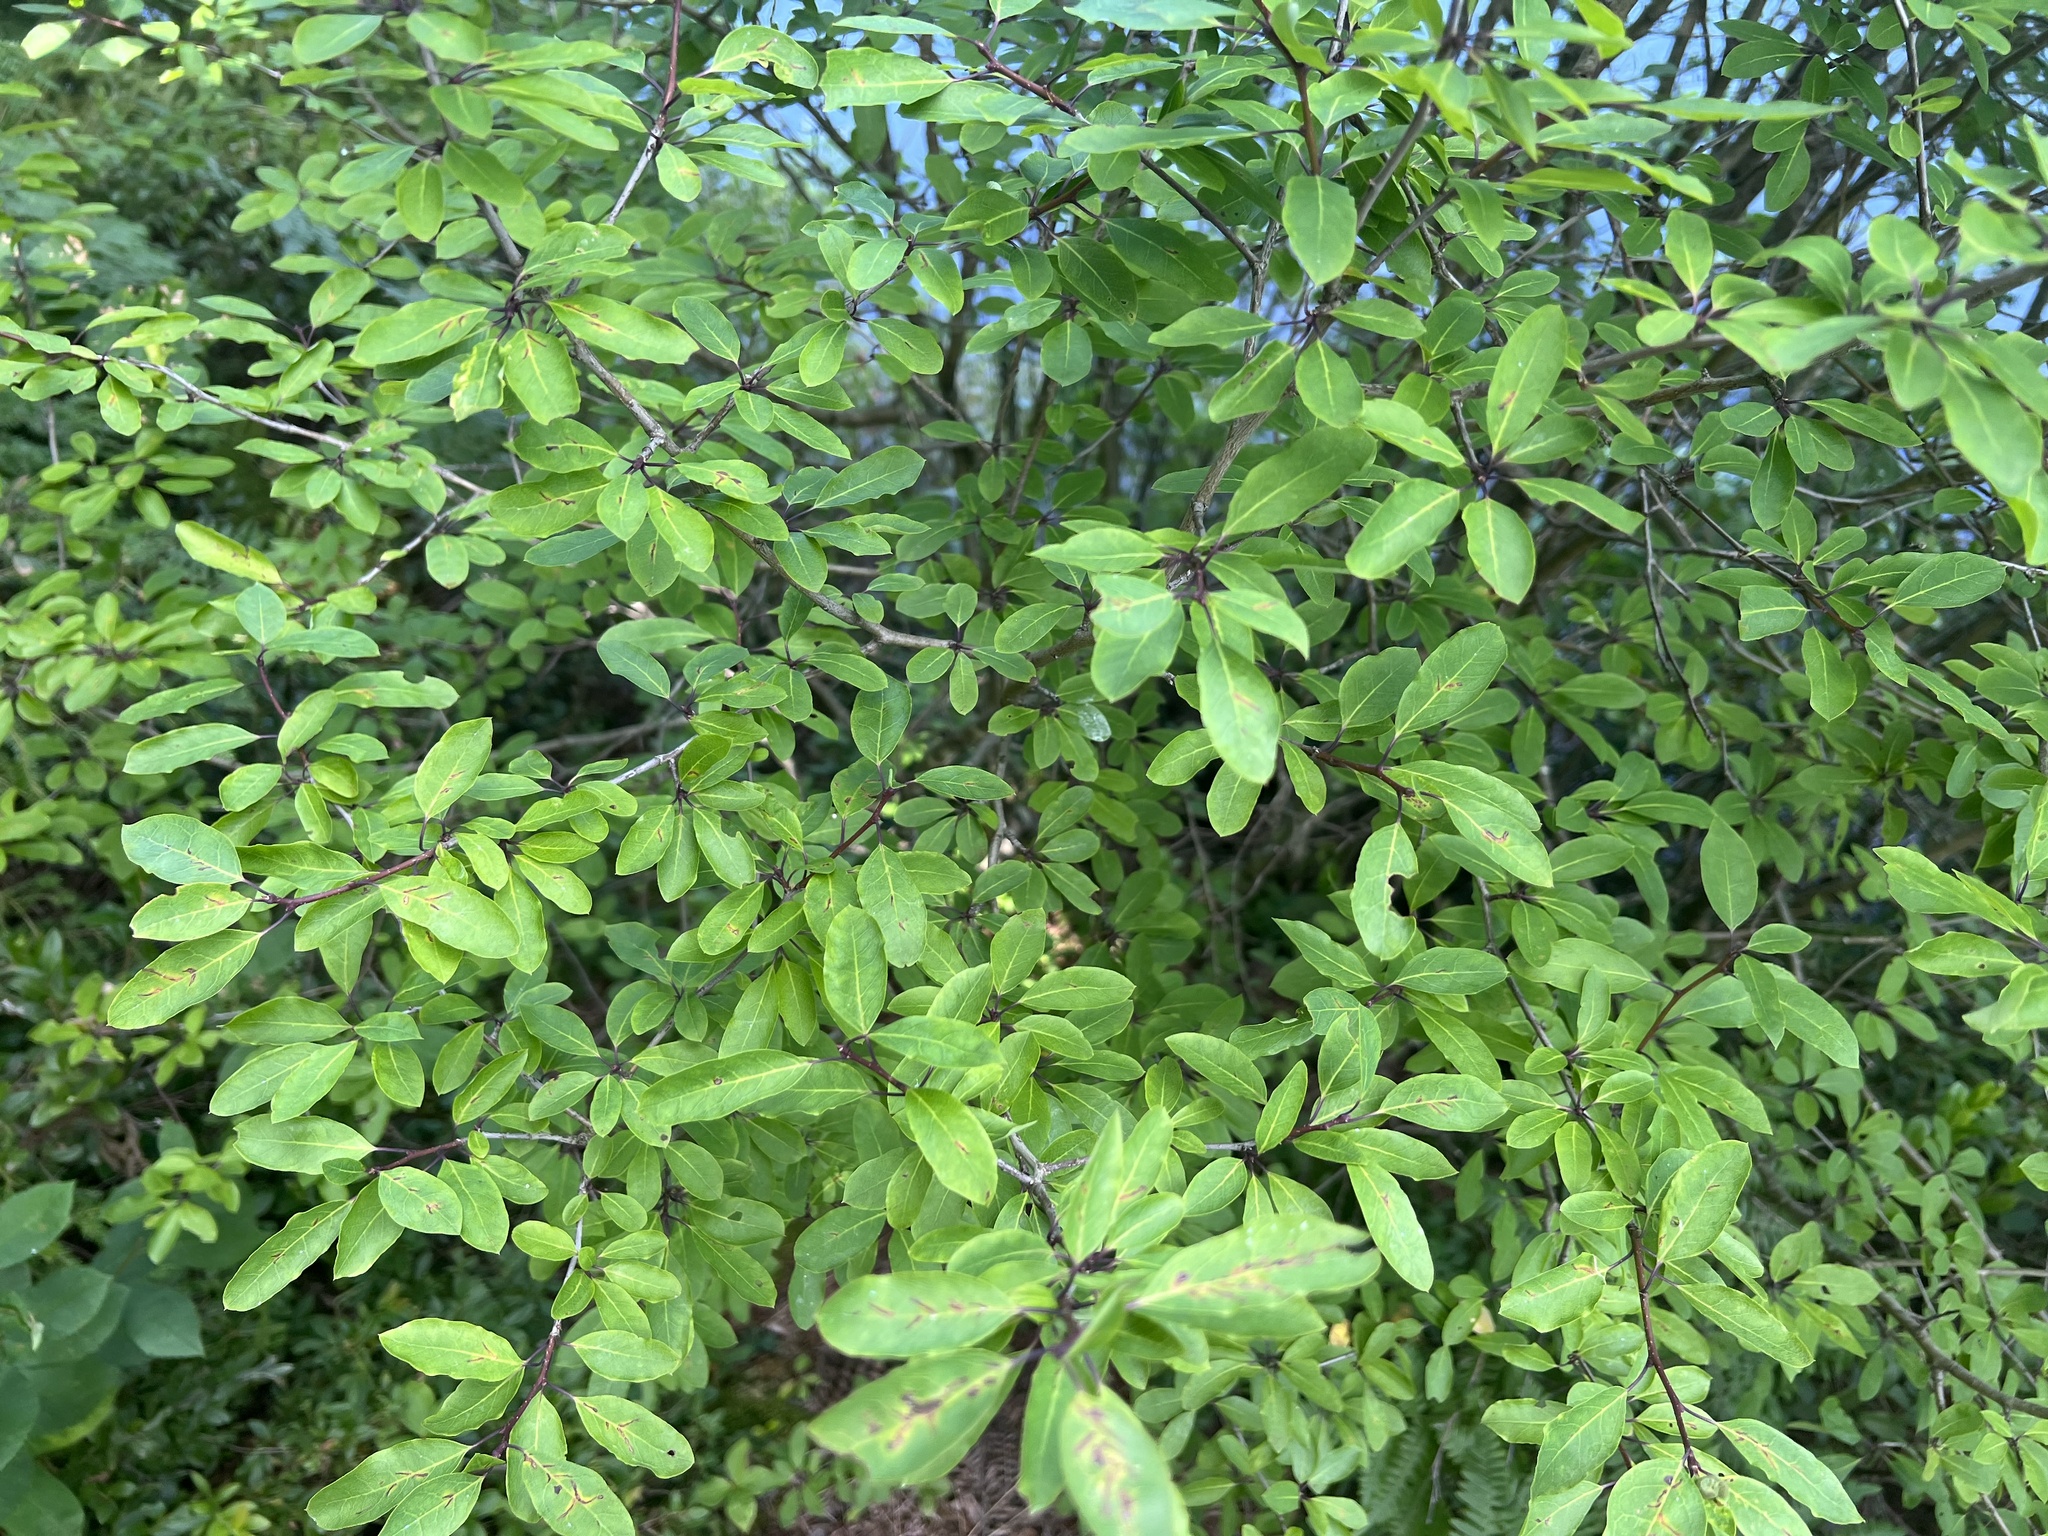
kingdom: Plantae
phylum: Tracheophyta
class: Magnoliopsida
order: Aquifoliales
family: Aquifoliaceae
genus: Ilex
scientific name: Ilex mucronata
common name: Catberry
